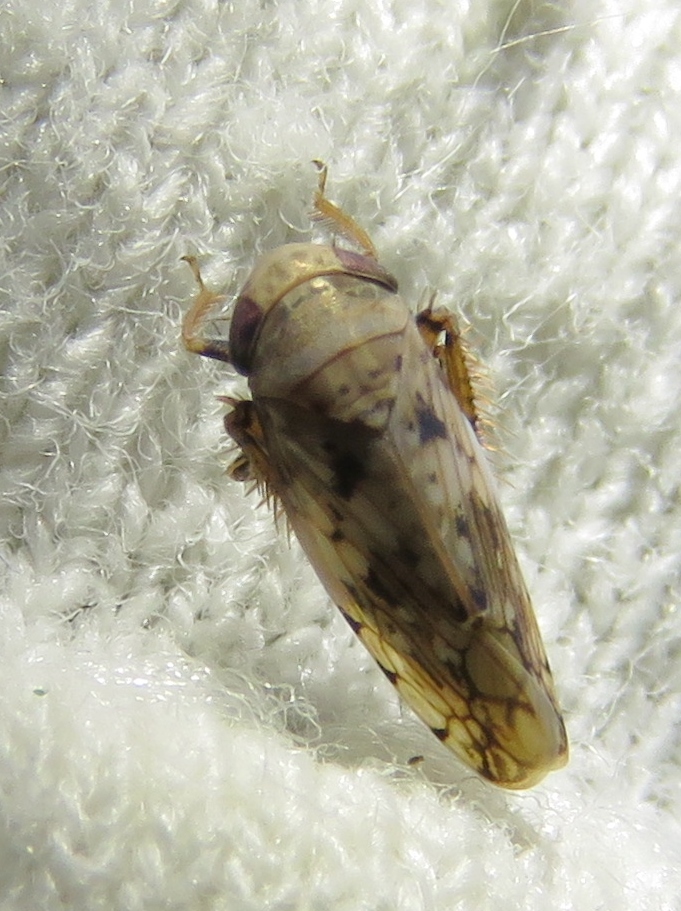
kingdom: Animalia
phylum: Arthropoda
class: Insecta
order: Hemiptera
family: Cicadellidae
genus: Menosoma
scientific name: Menosoma cinctum
